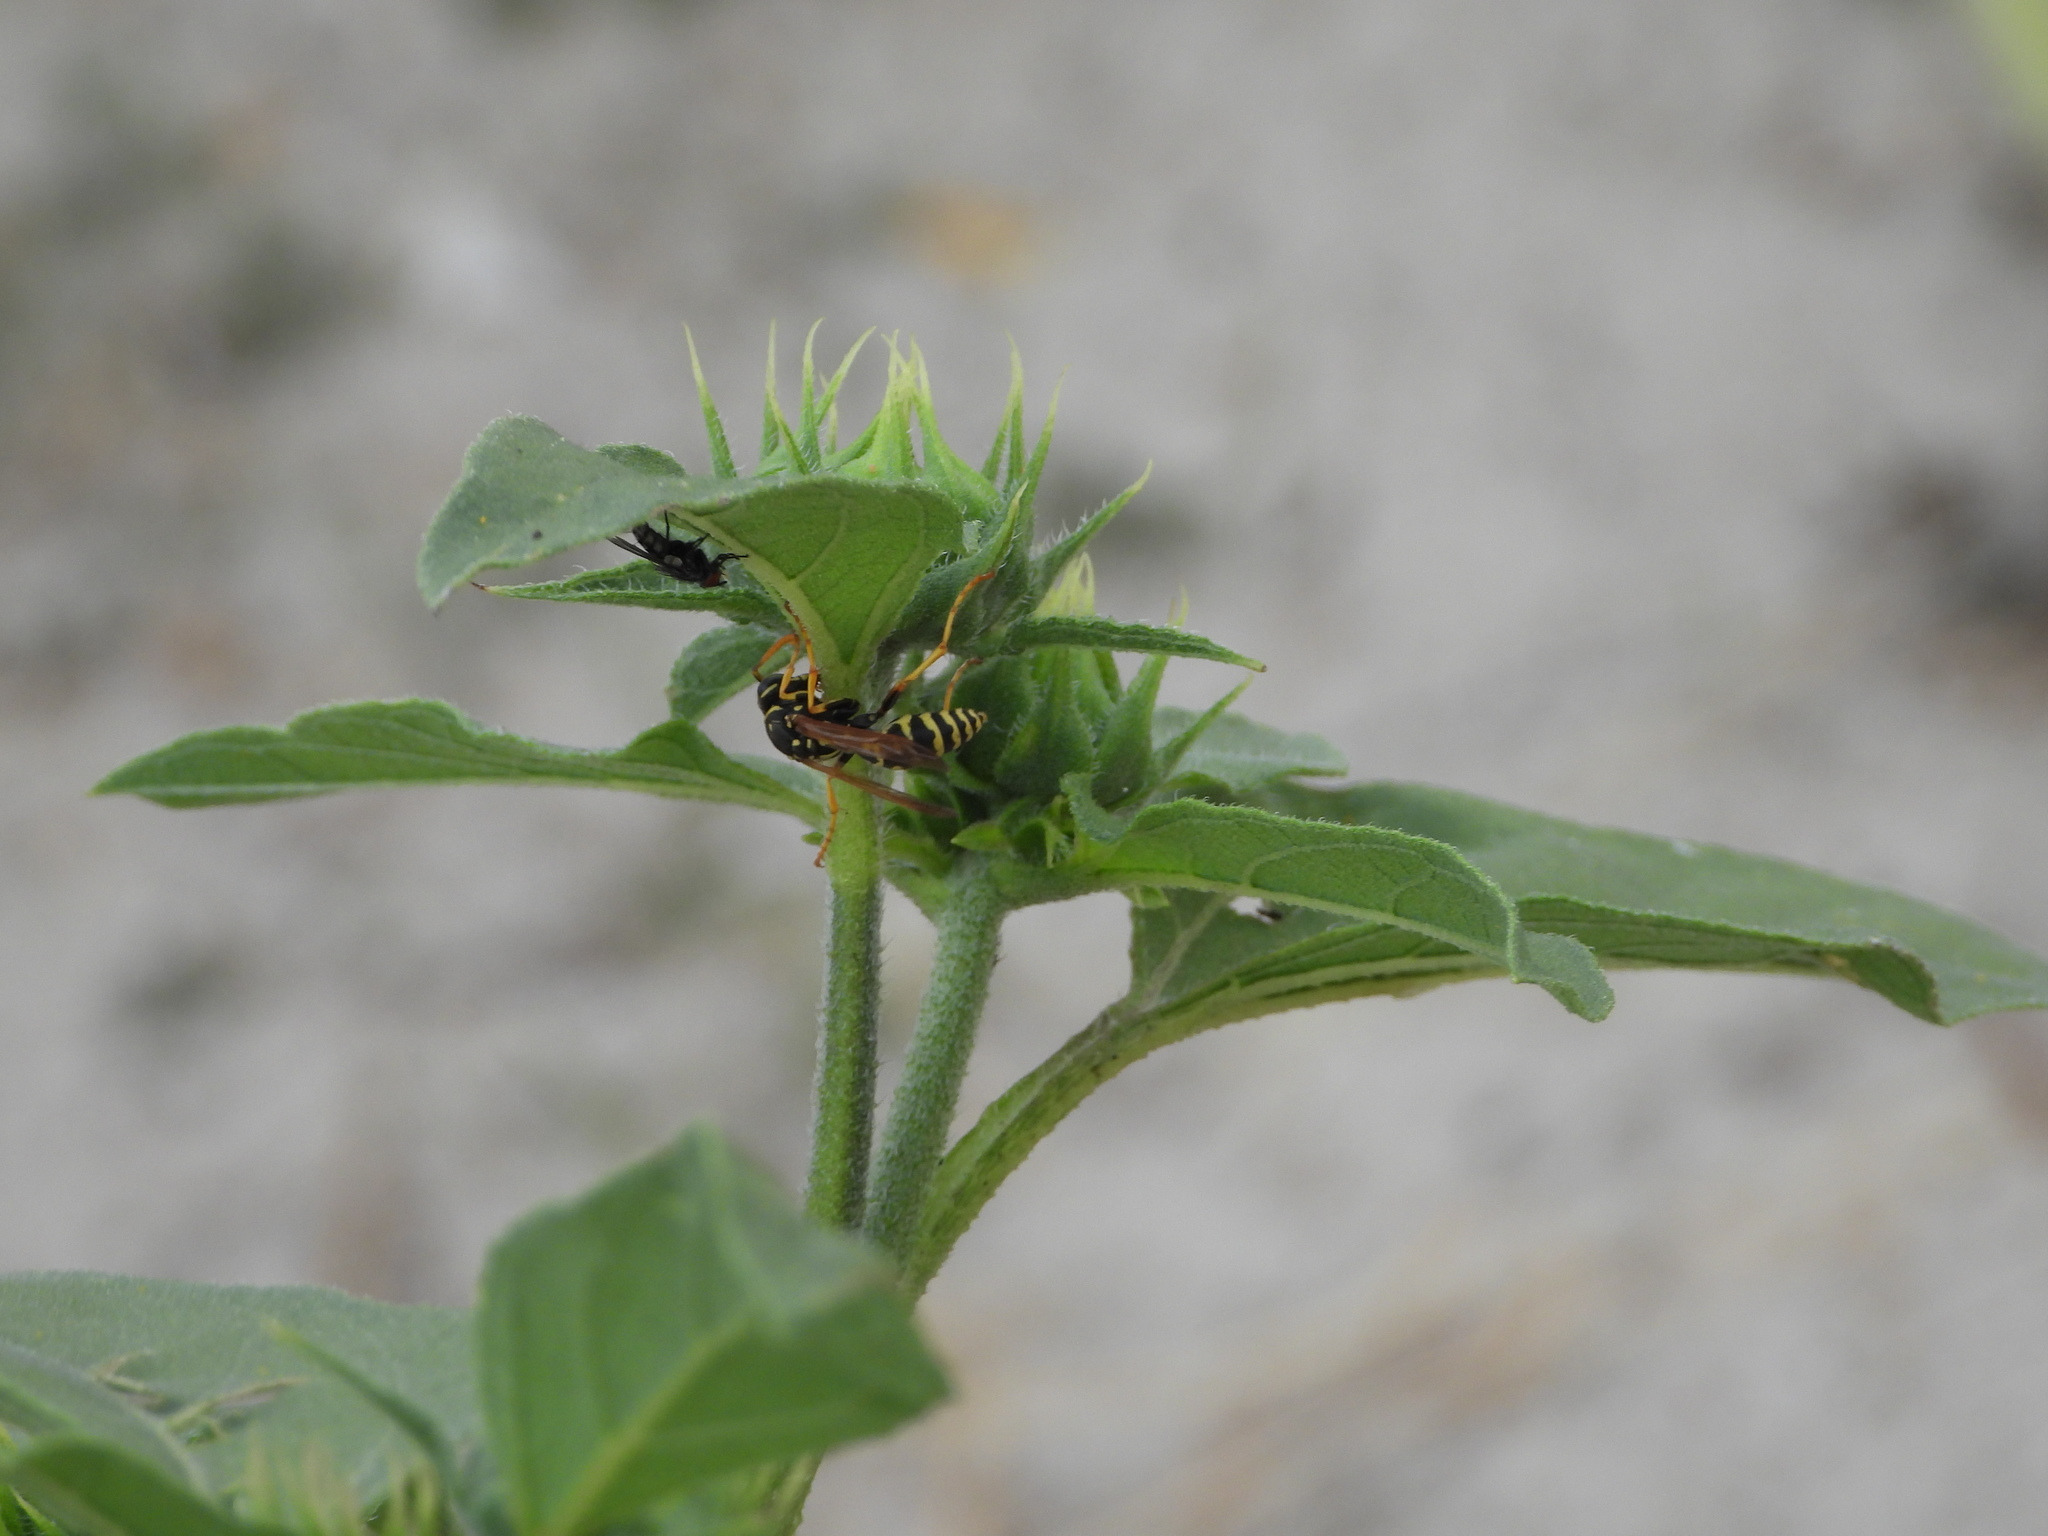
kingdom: Animalia
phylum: Arthropoda
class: Insecta
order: Hymenoptera
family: Eumenidae
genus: Polistes
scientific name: Polistes dominula
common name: Paper wasp
